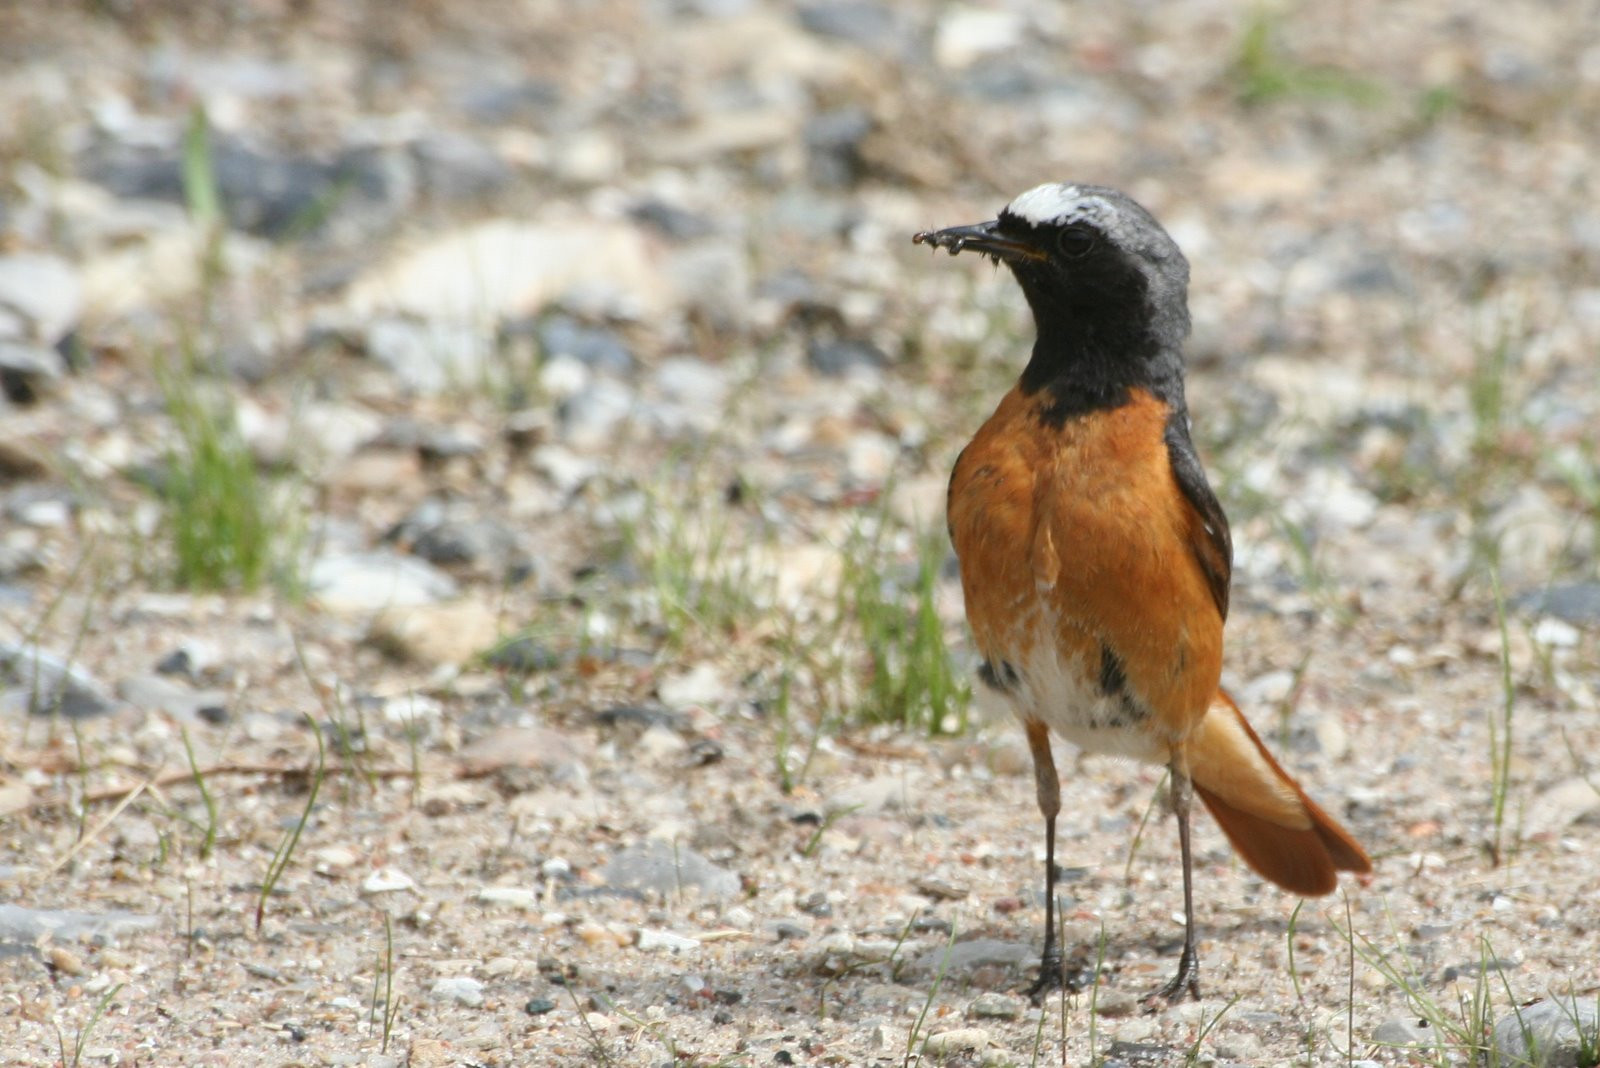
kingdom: Animalia
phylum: Chordata
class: Aves
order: Passeriformes
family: Muscicapidae
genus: Phoenicurus
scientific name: Phoenicurus phoenicurus
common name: Common redstart
